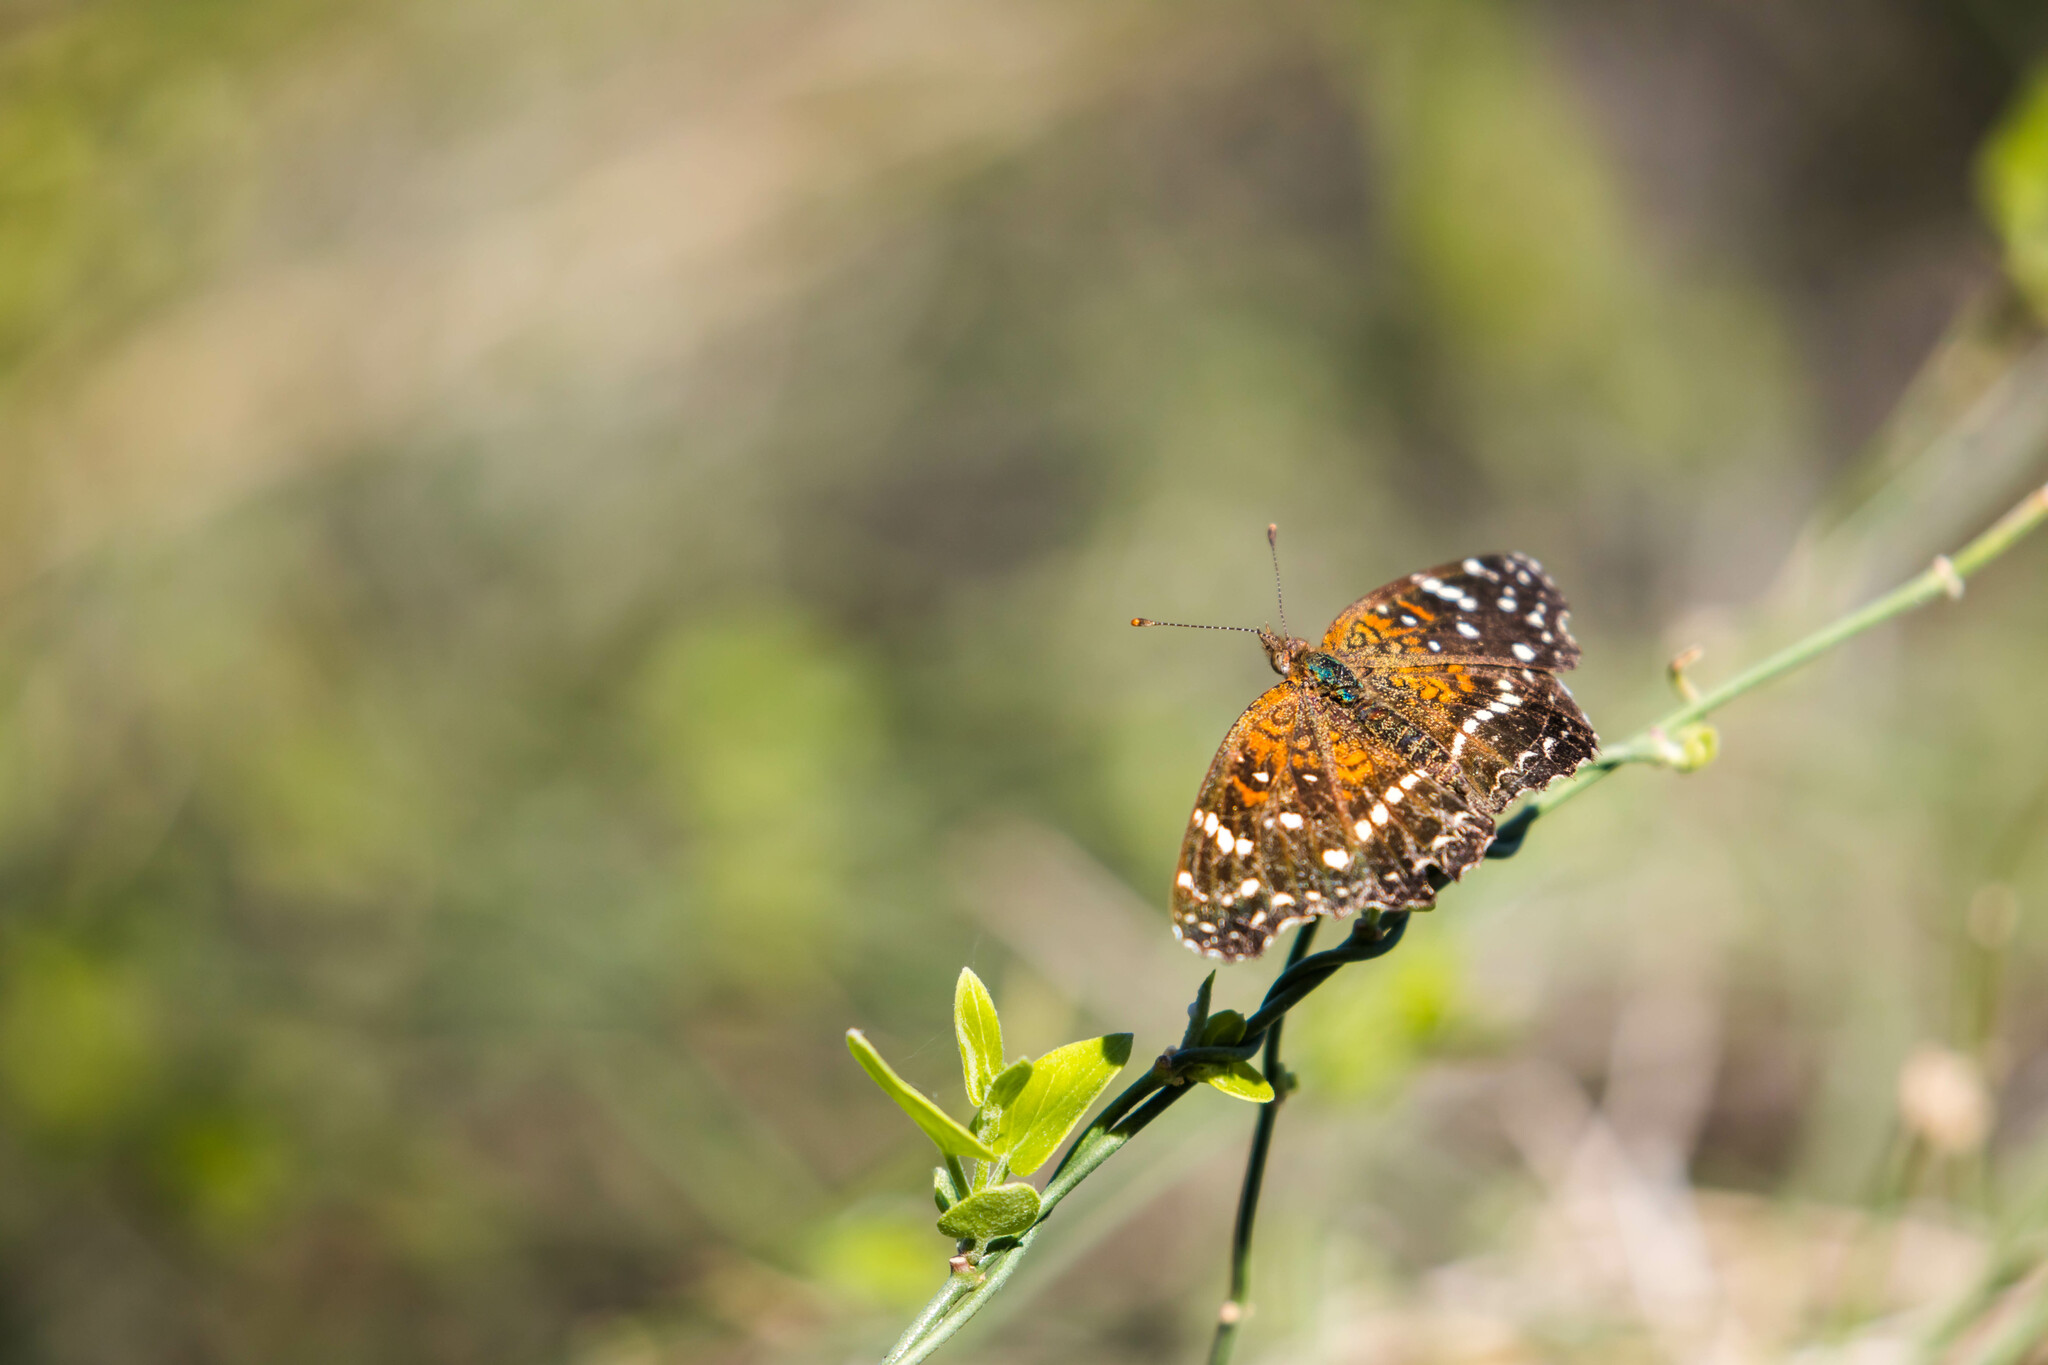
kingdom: Animalia
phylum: Arthropoda
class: Insecta
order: Lepidoptera
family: Nymphalidae
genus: Anthanassa
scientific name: Anthanassa texana
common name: Texan crescent
